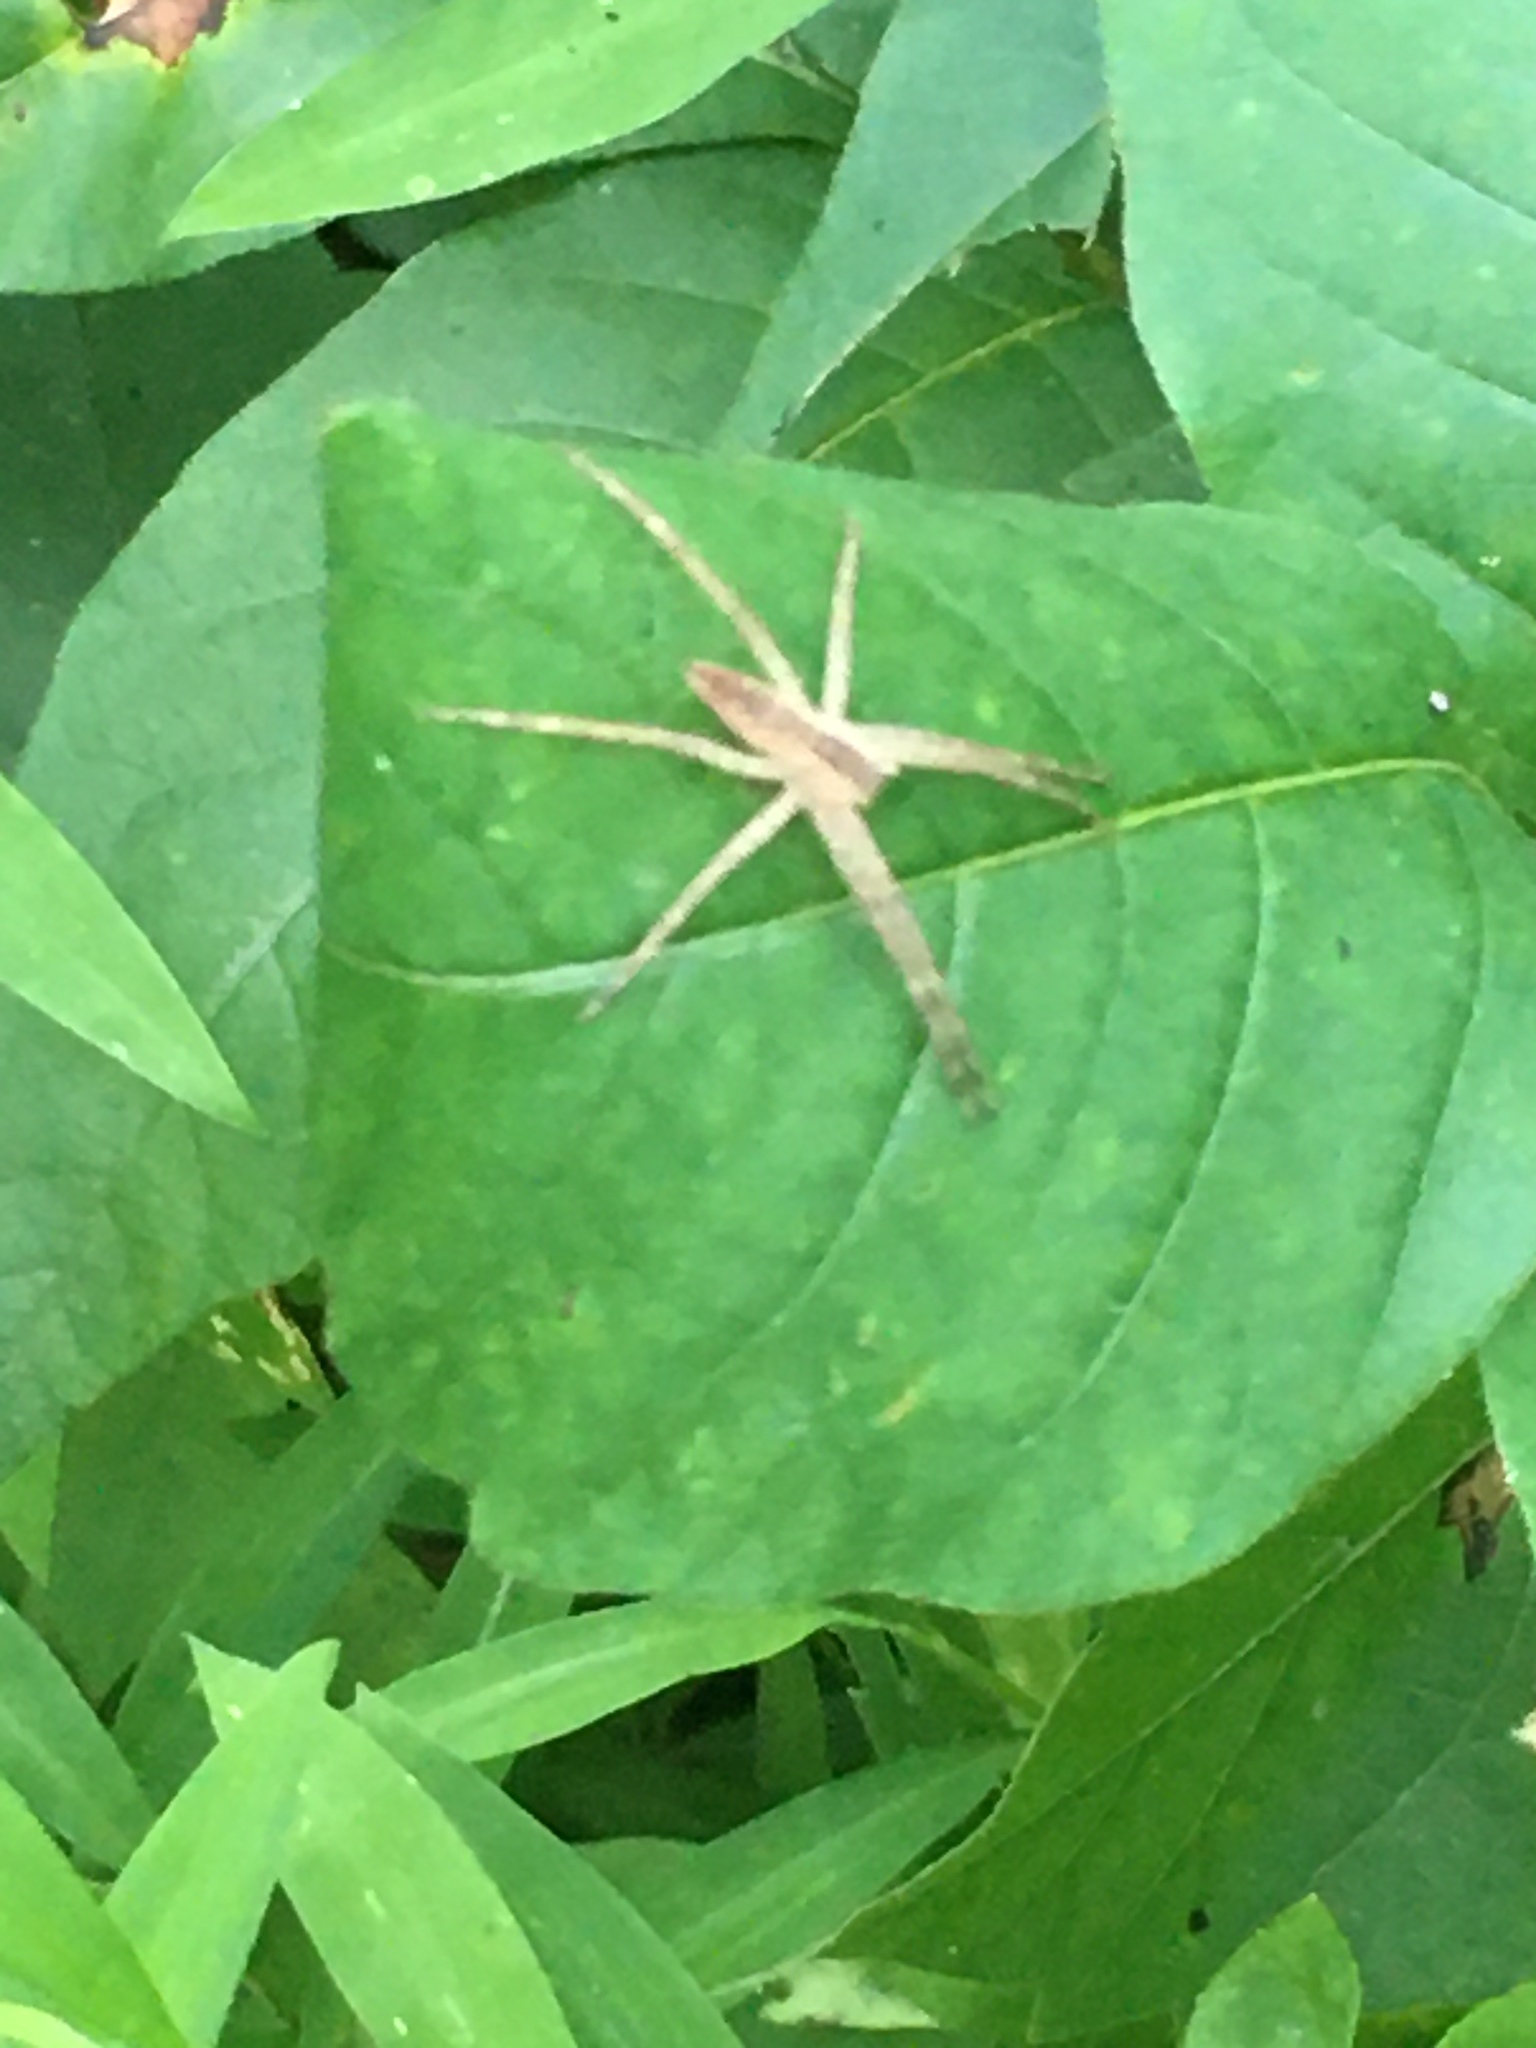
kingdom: Animalia
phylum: Arthropoda
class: Arachnida
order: Araneae
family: Pisauridae
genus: Pisaurina
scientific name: Pisaurina mira
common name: American nursery web spider
